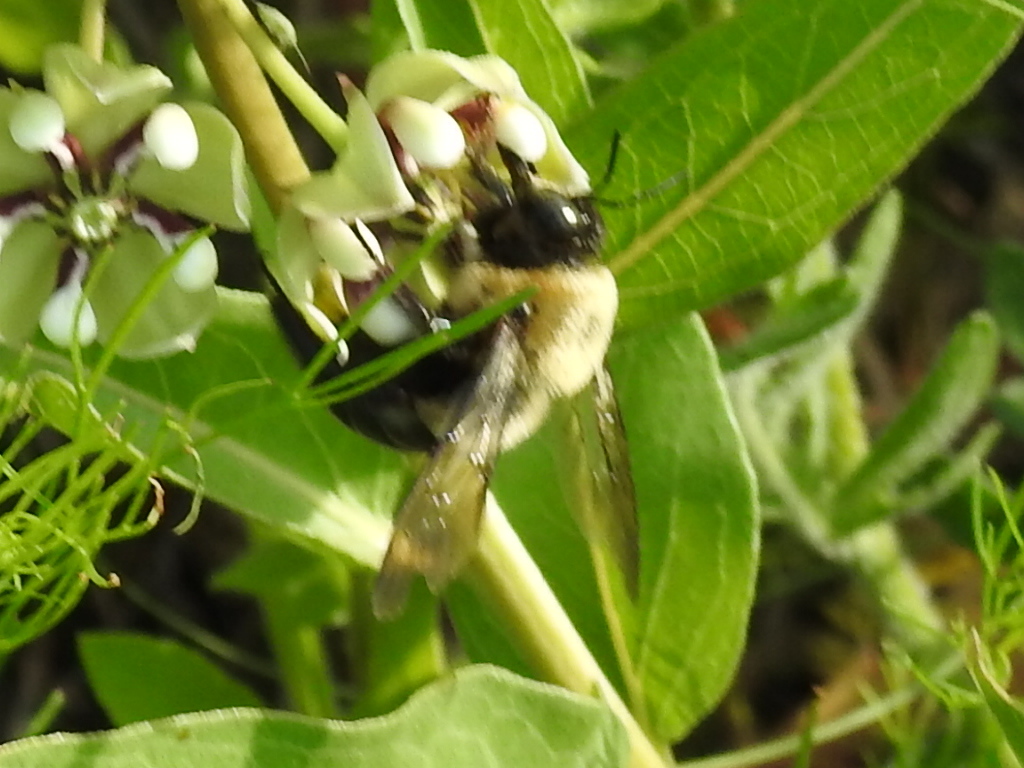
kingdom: Animalia
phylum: Arthropoda
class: Insecta
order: Hymenoptera
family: Apidae
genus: Xylocopa
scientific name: Xylocopa virginica
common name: Carpenter bee
